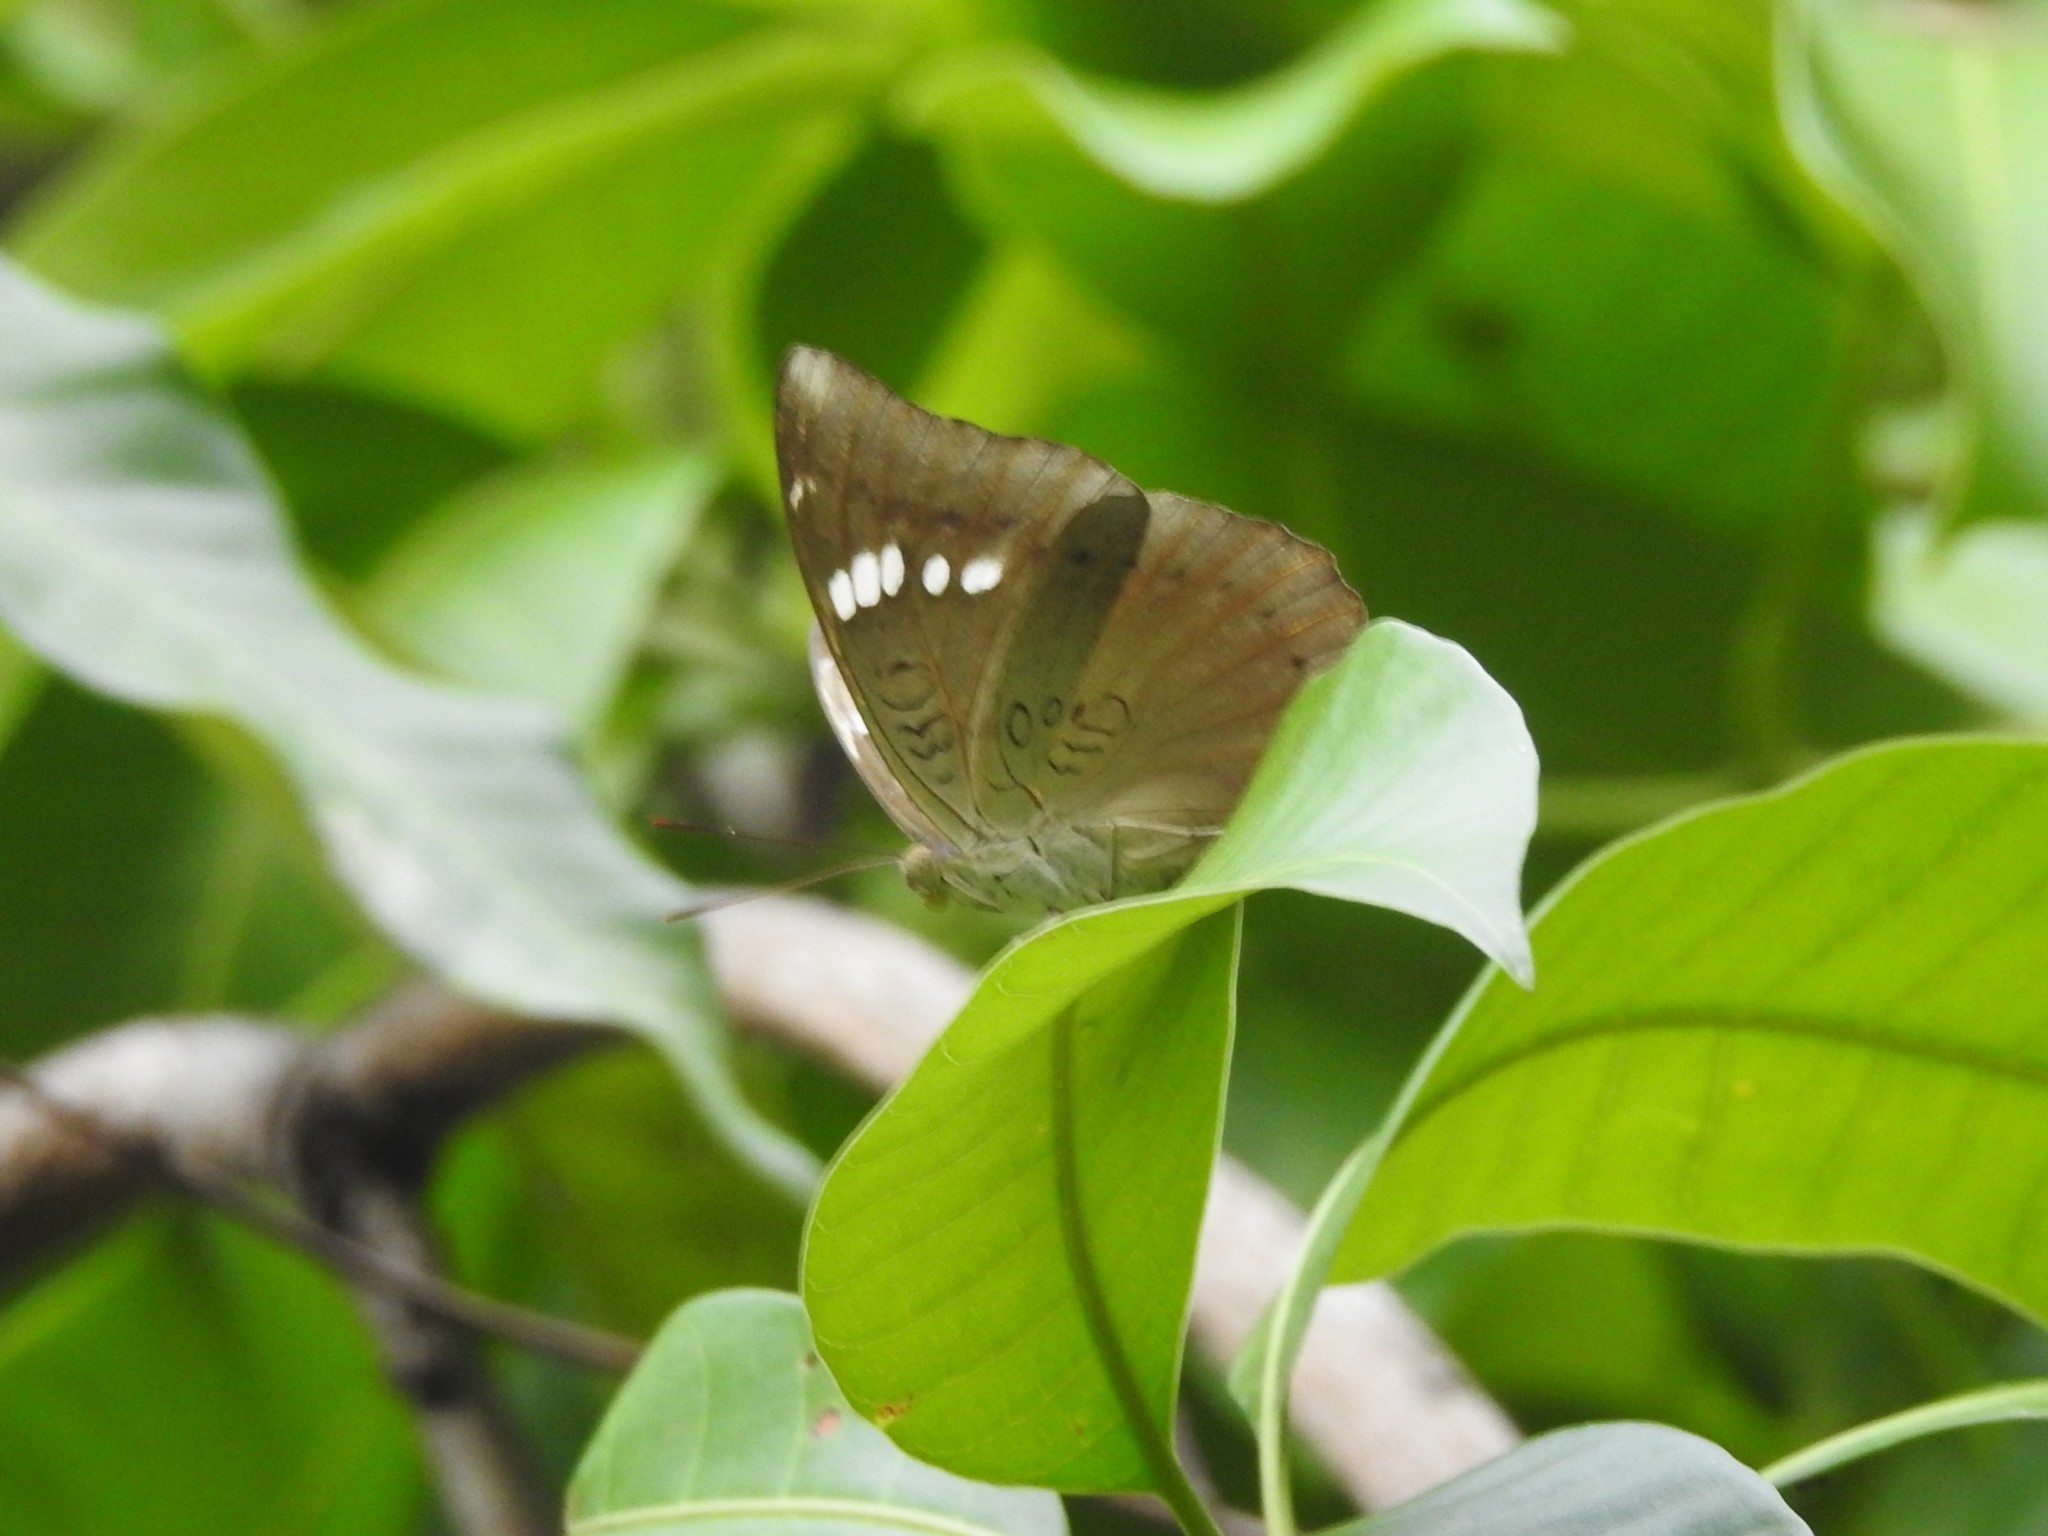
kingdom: Animalia
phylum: Arthropoda
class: Insecta
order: Lepidoptera
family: Nymphalidae
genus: Euthalia
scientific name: Euthalia aconthea
